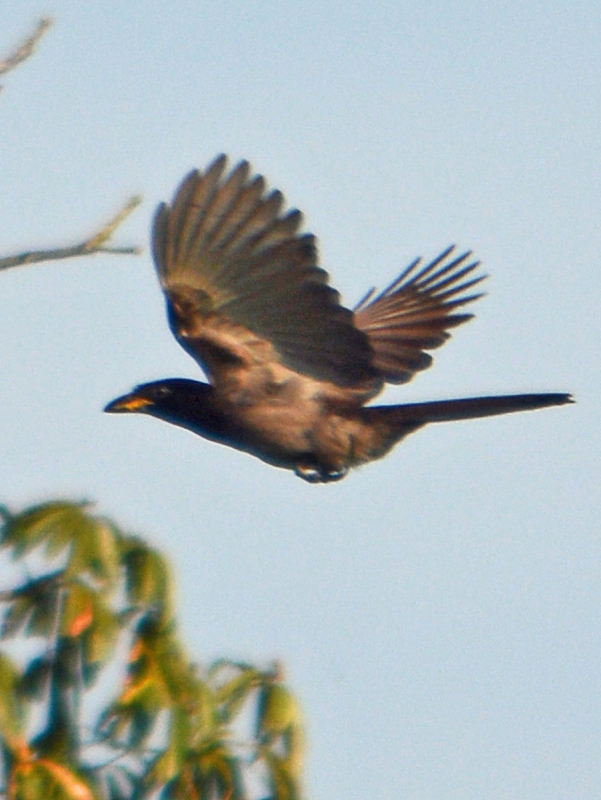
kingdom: Animalia
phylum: Chordata
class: Aves
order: Passeriformes
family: Corvidae
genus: Psilorhinus
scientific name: Psilorhinus morio
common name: Brown jay
